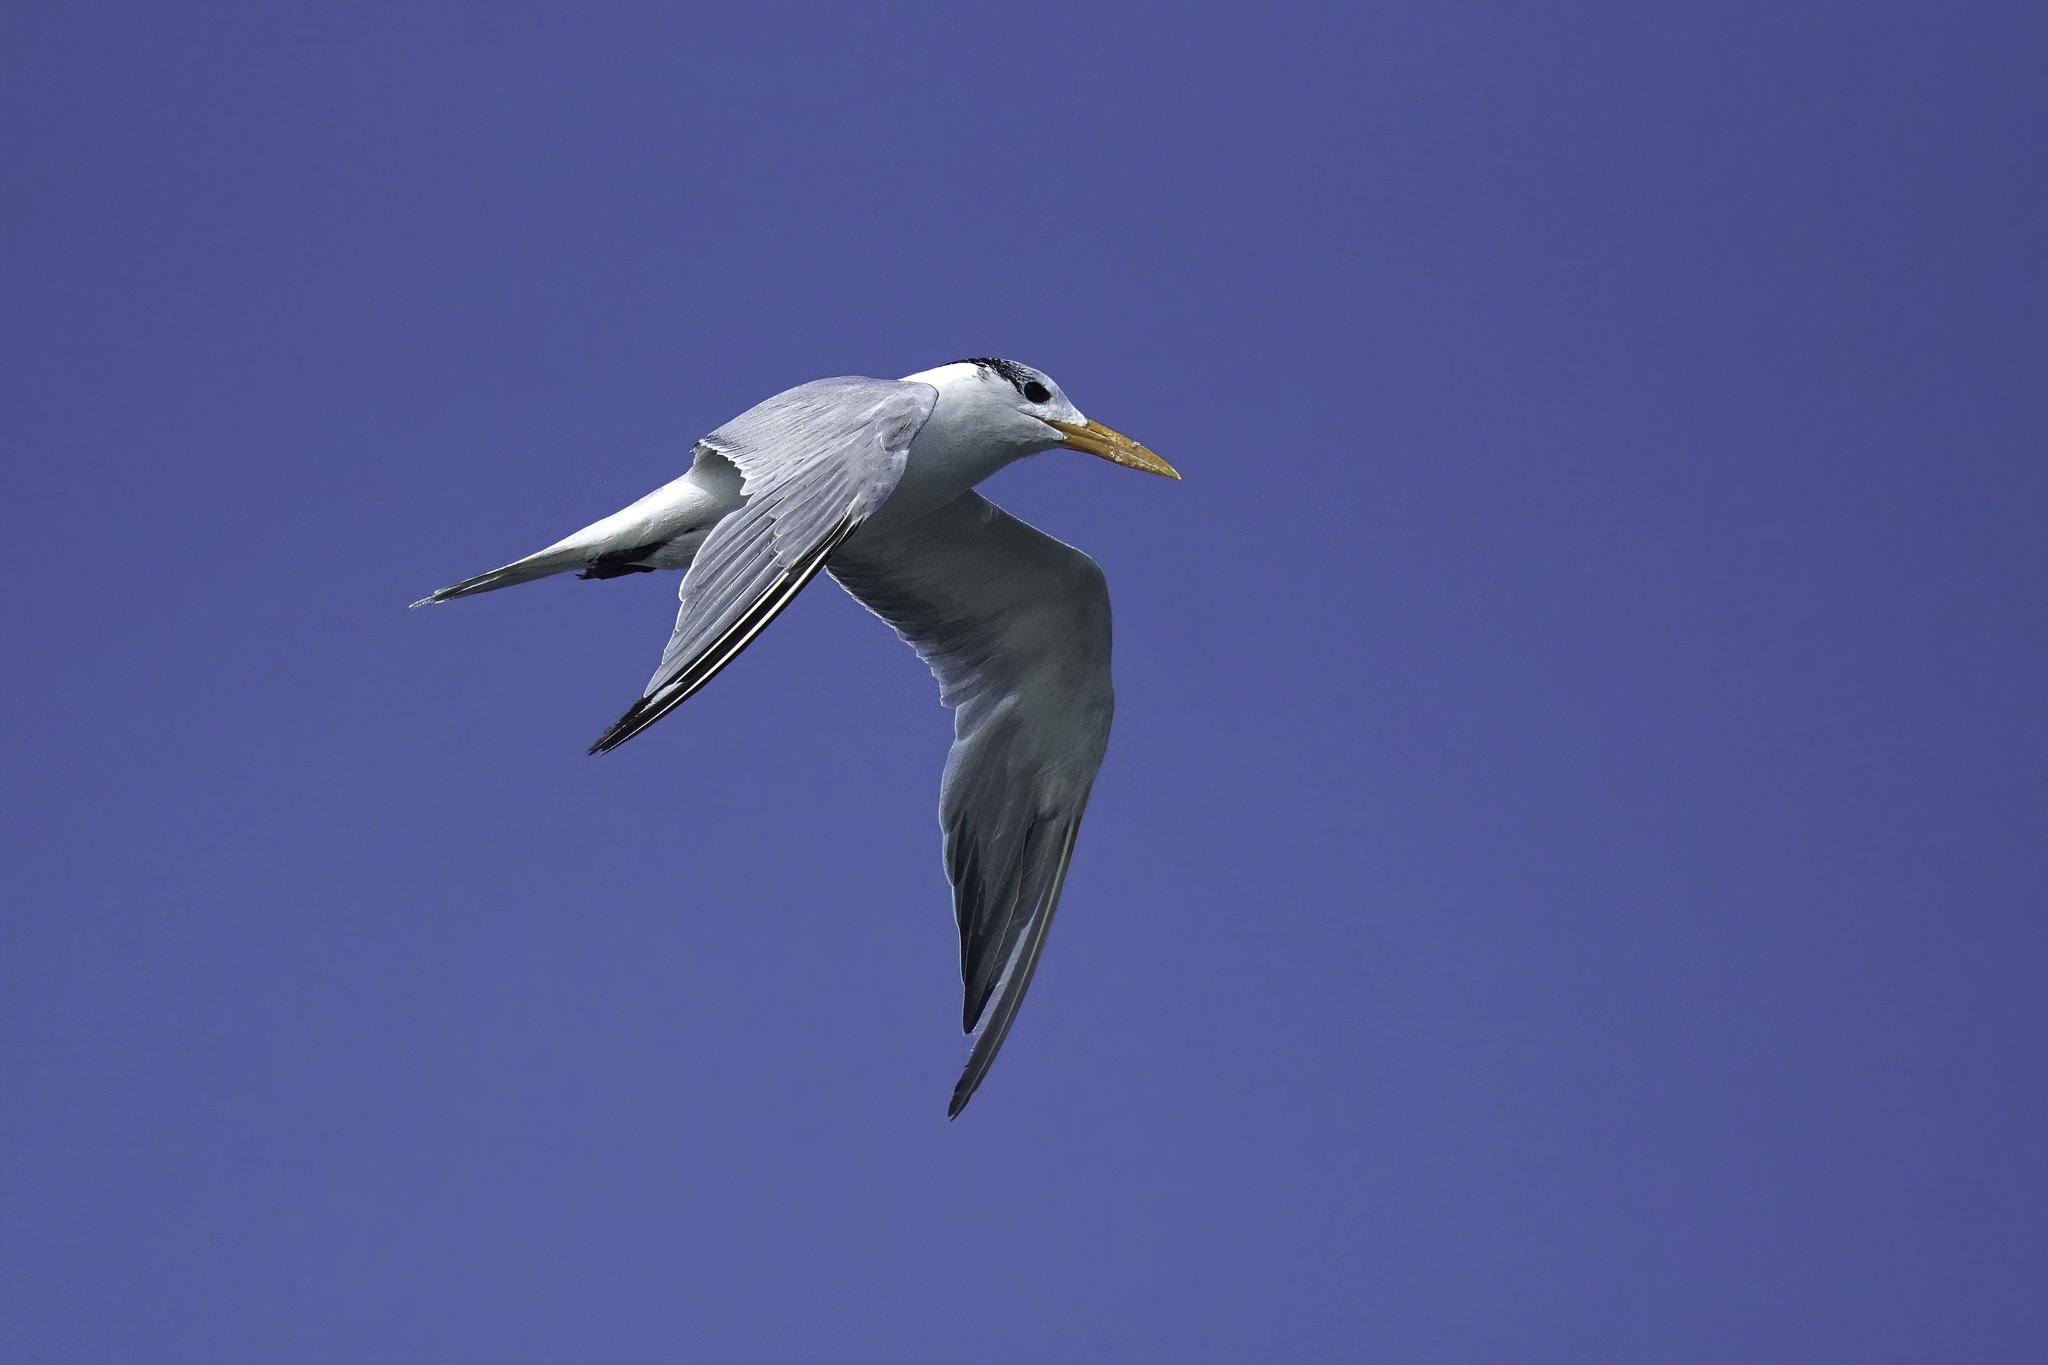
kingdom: Animalia
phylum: Chordata
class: Aves
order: Charadriiformes
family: Laridae
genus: Thalasseus
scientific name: Thalasseus maximus
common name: Royal tern
